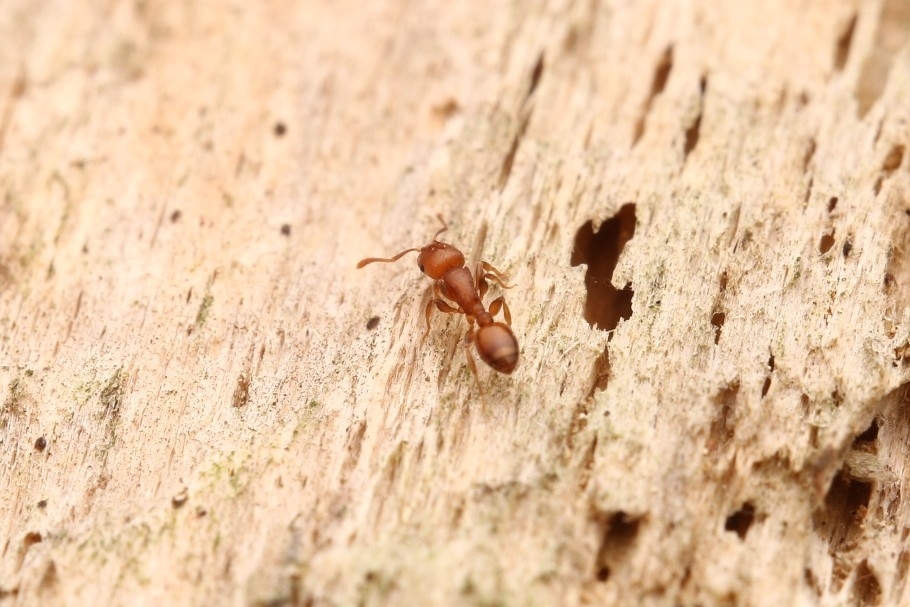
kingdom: Animalia
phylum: Arthropoda
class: Insecta
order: Hymenoptera
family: Formicidae
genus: Leptothorax
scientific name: Leptothorax schaumii
